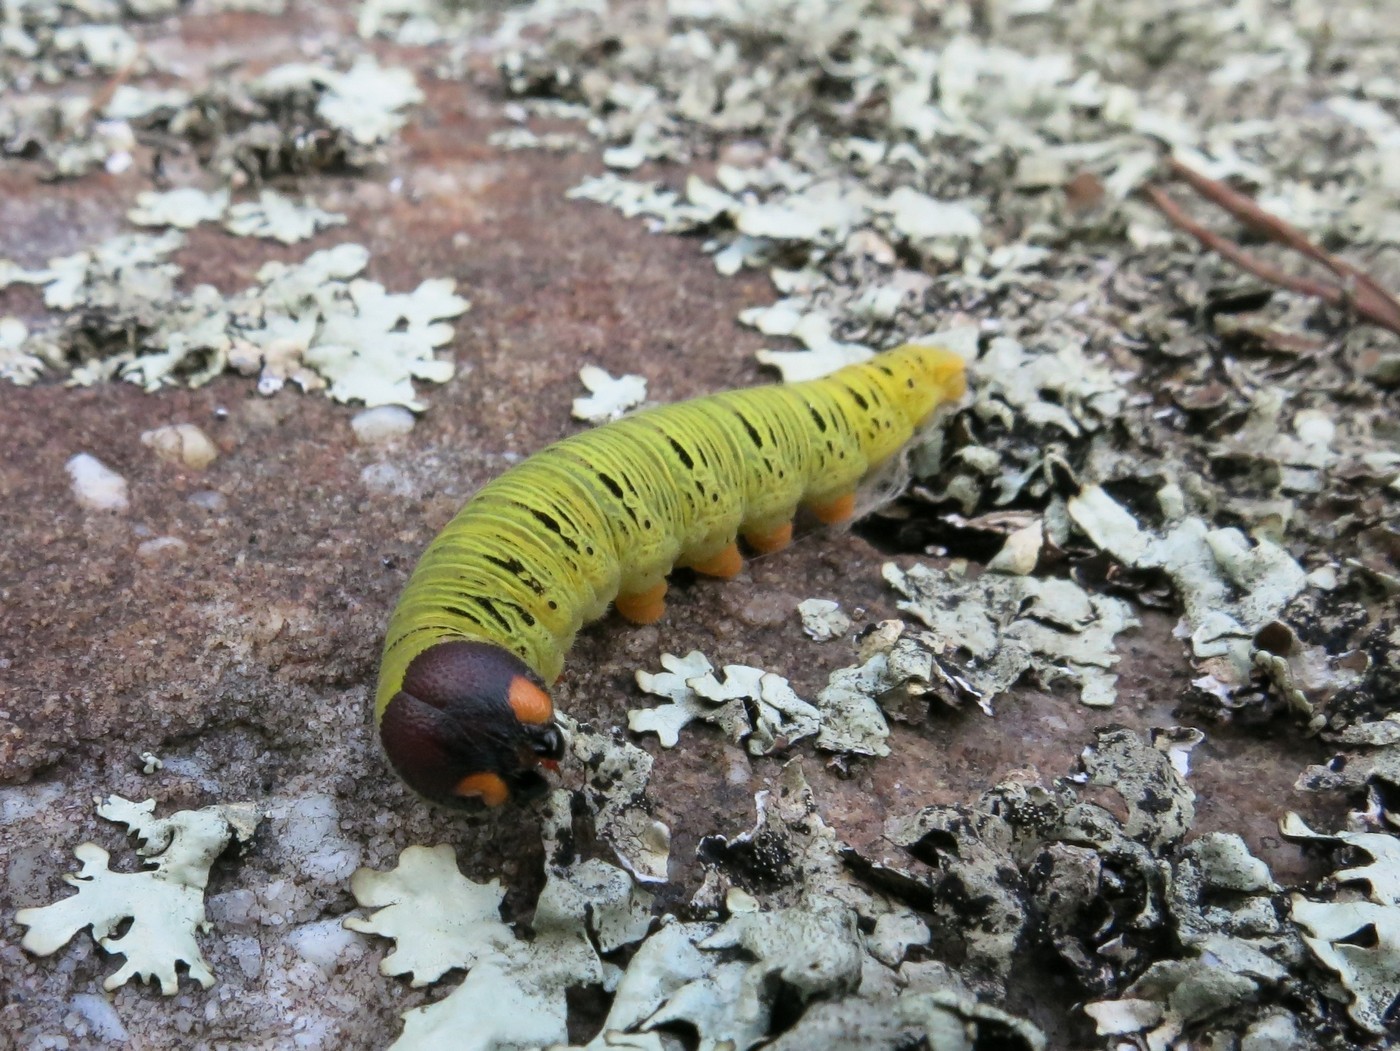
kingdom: Animalia
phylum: Arthropoda
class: Insecta
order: Lepidoptera
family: Hesperiidae
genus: Epargyreus
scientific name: Epargyreus clarus
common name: Silver-spotted skipper
